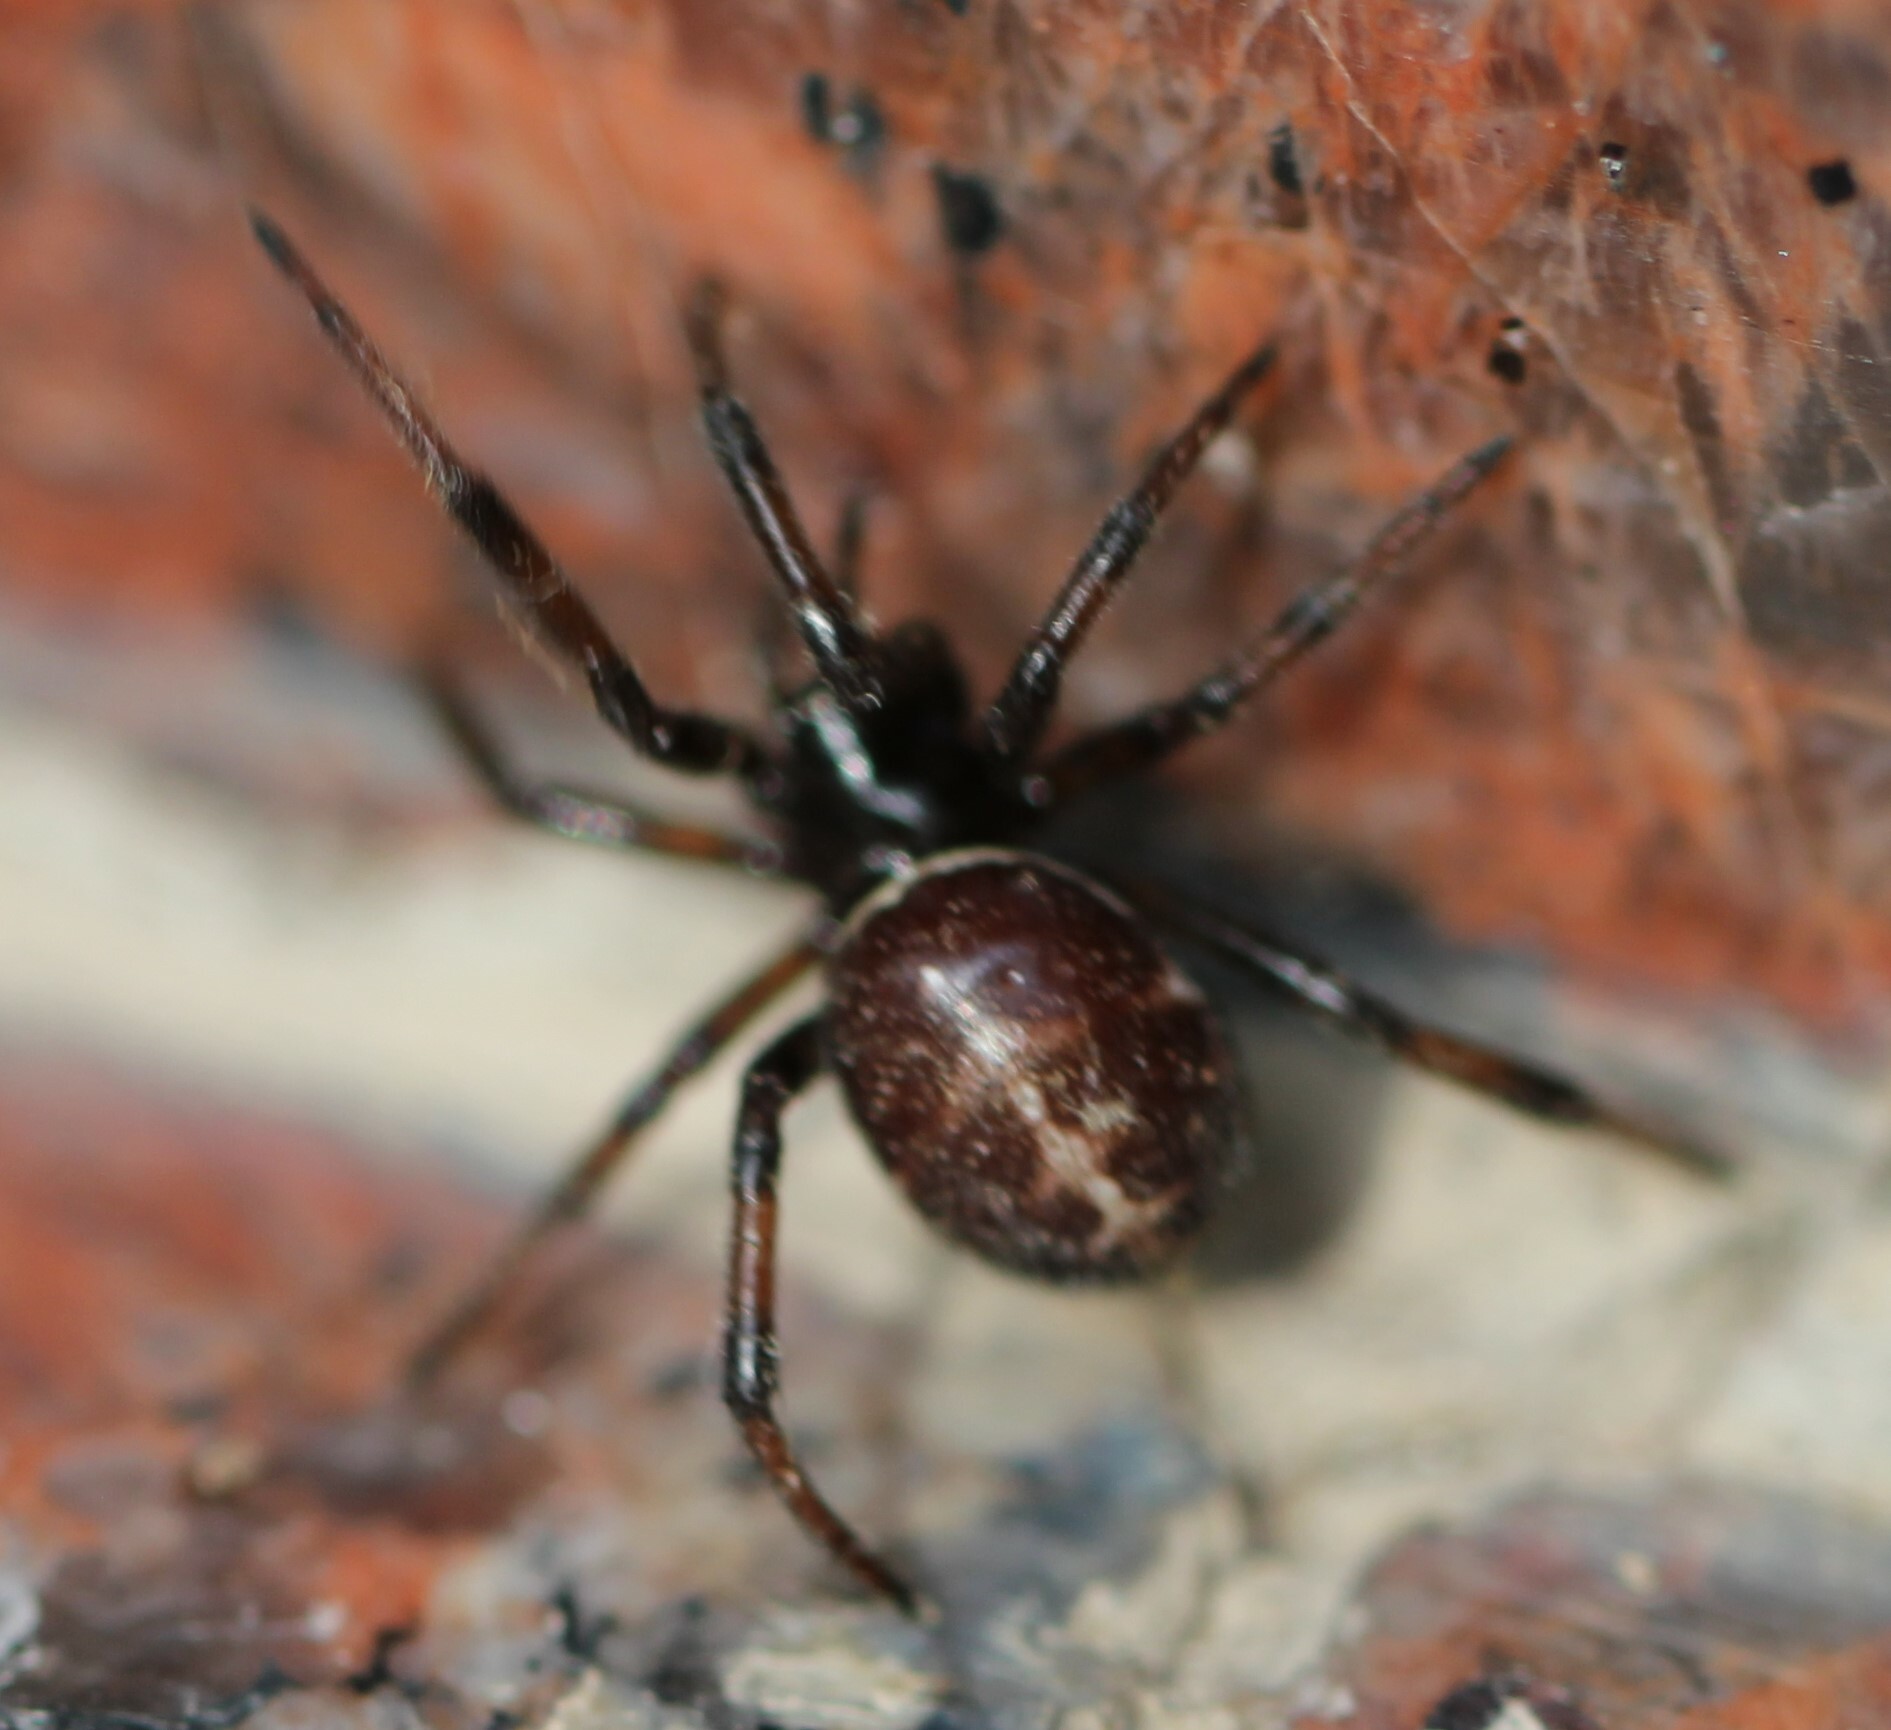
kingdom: Animalia
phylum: Arthropoda
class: Arachnida
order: Araneae
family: Theridiidae
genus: Steatoda
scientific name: Steatoda paykulliana
